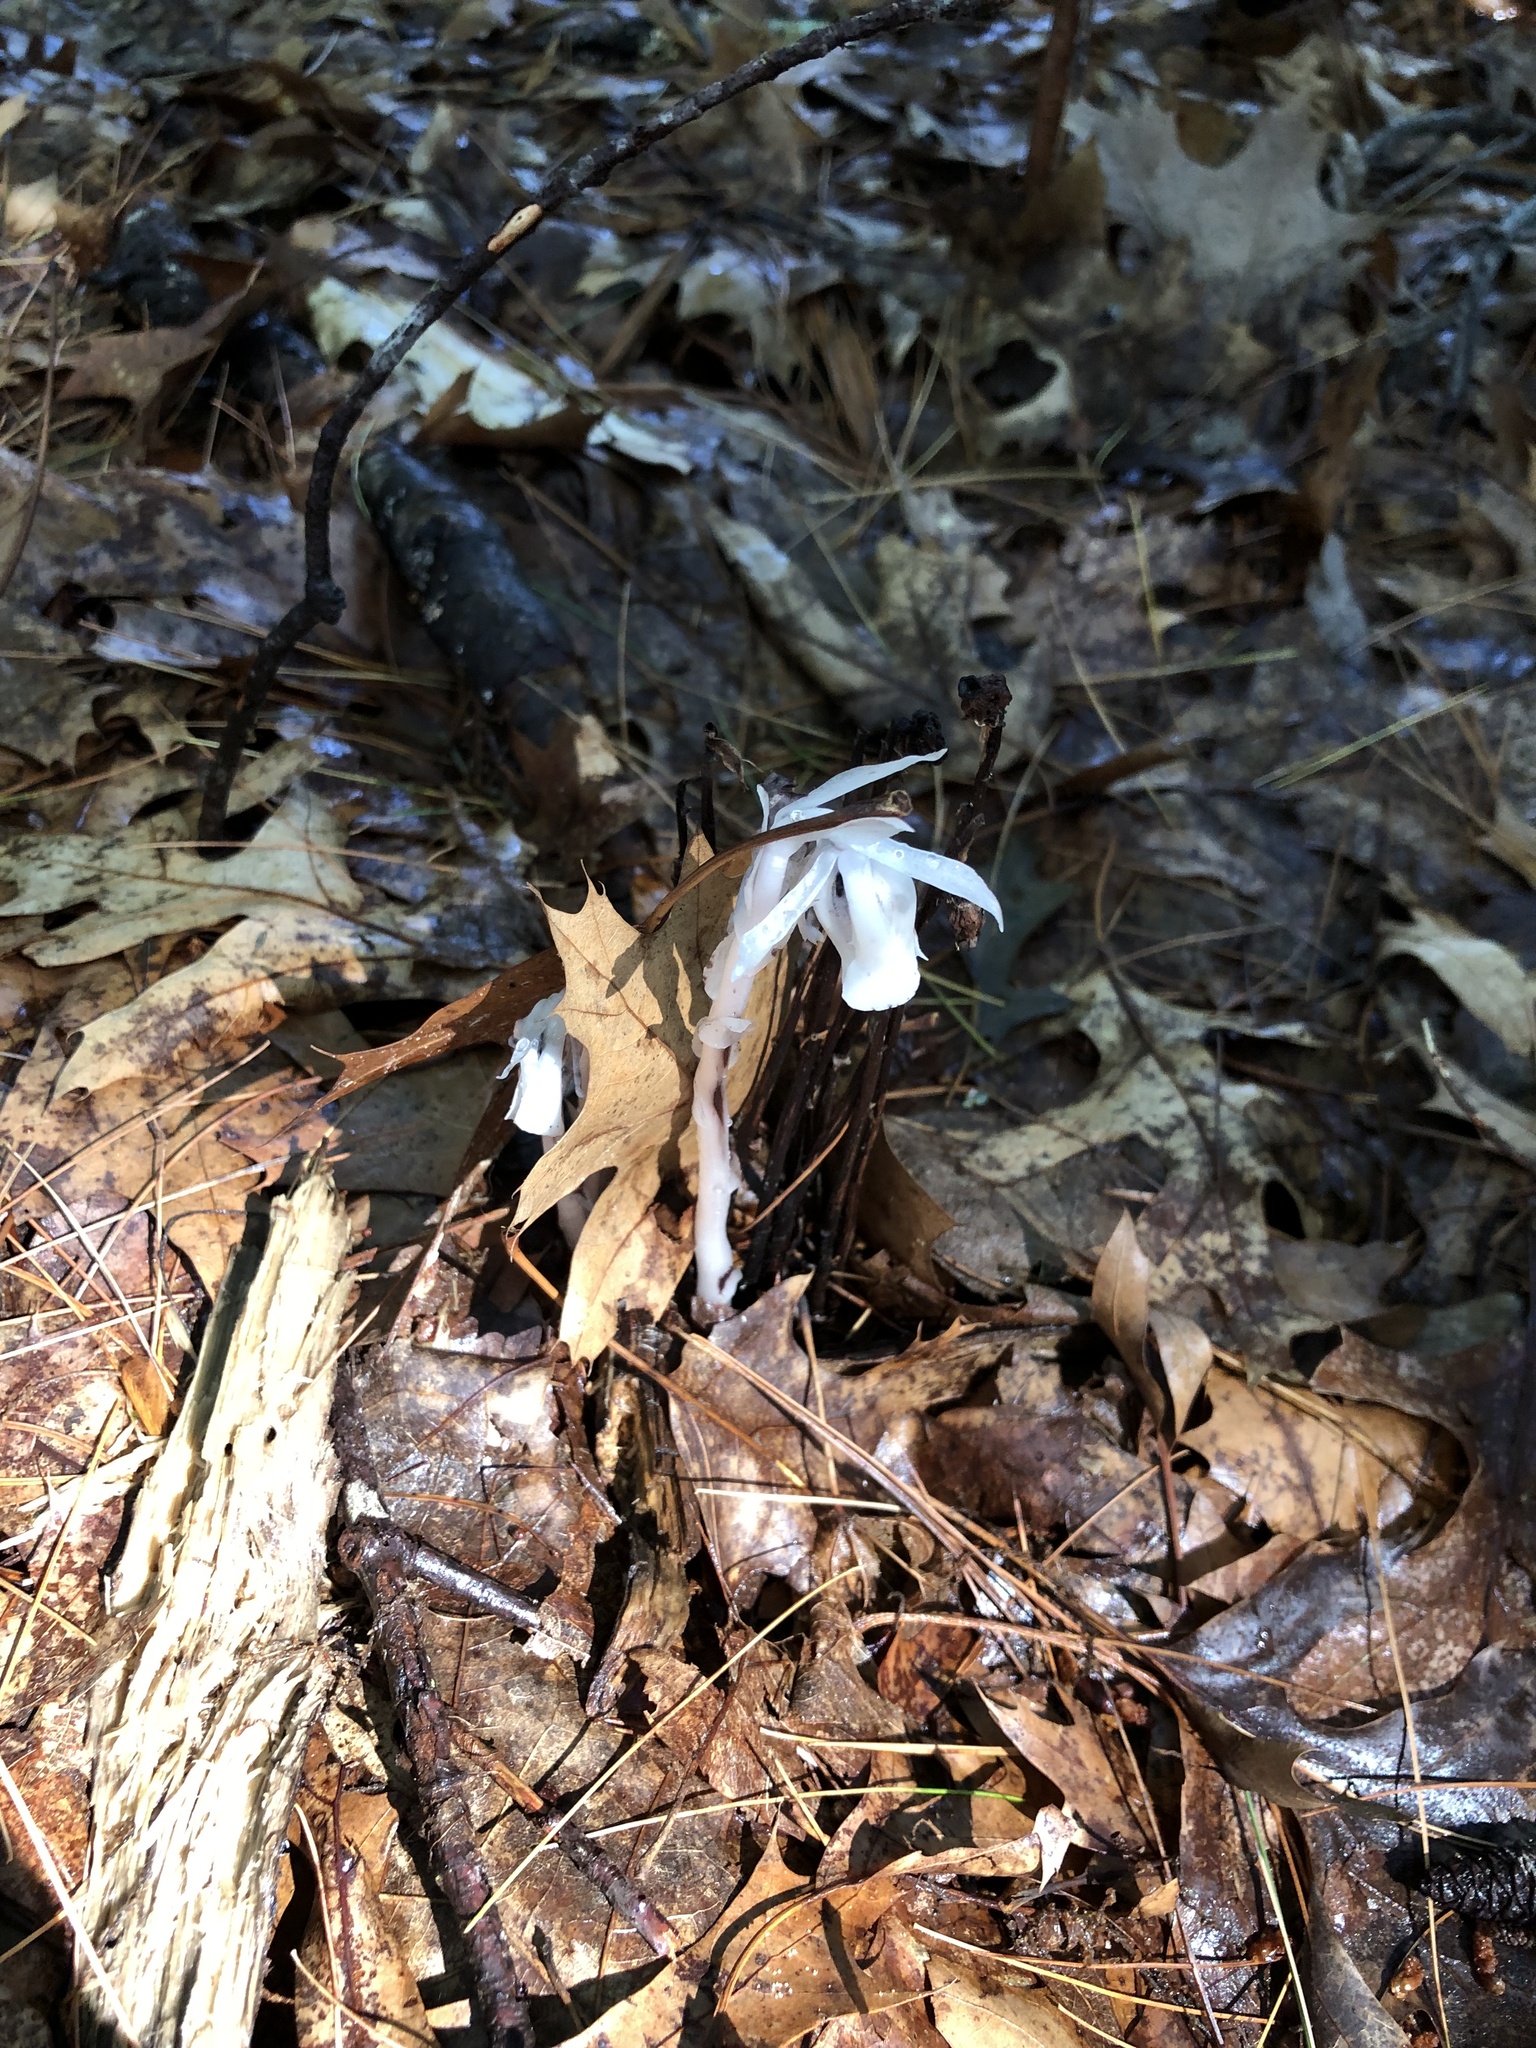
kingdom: Plantae
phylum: Tracheophyta
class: Magnoliopsida
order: Ericales
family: Ericaceae
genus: Monotropa
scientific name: Monotropa uniflora
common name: Convulsion root
